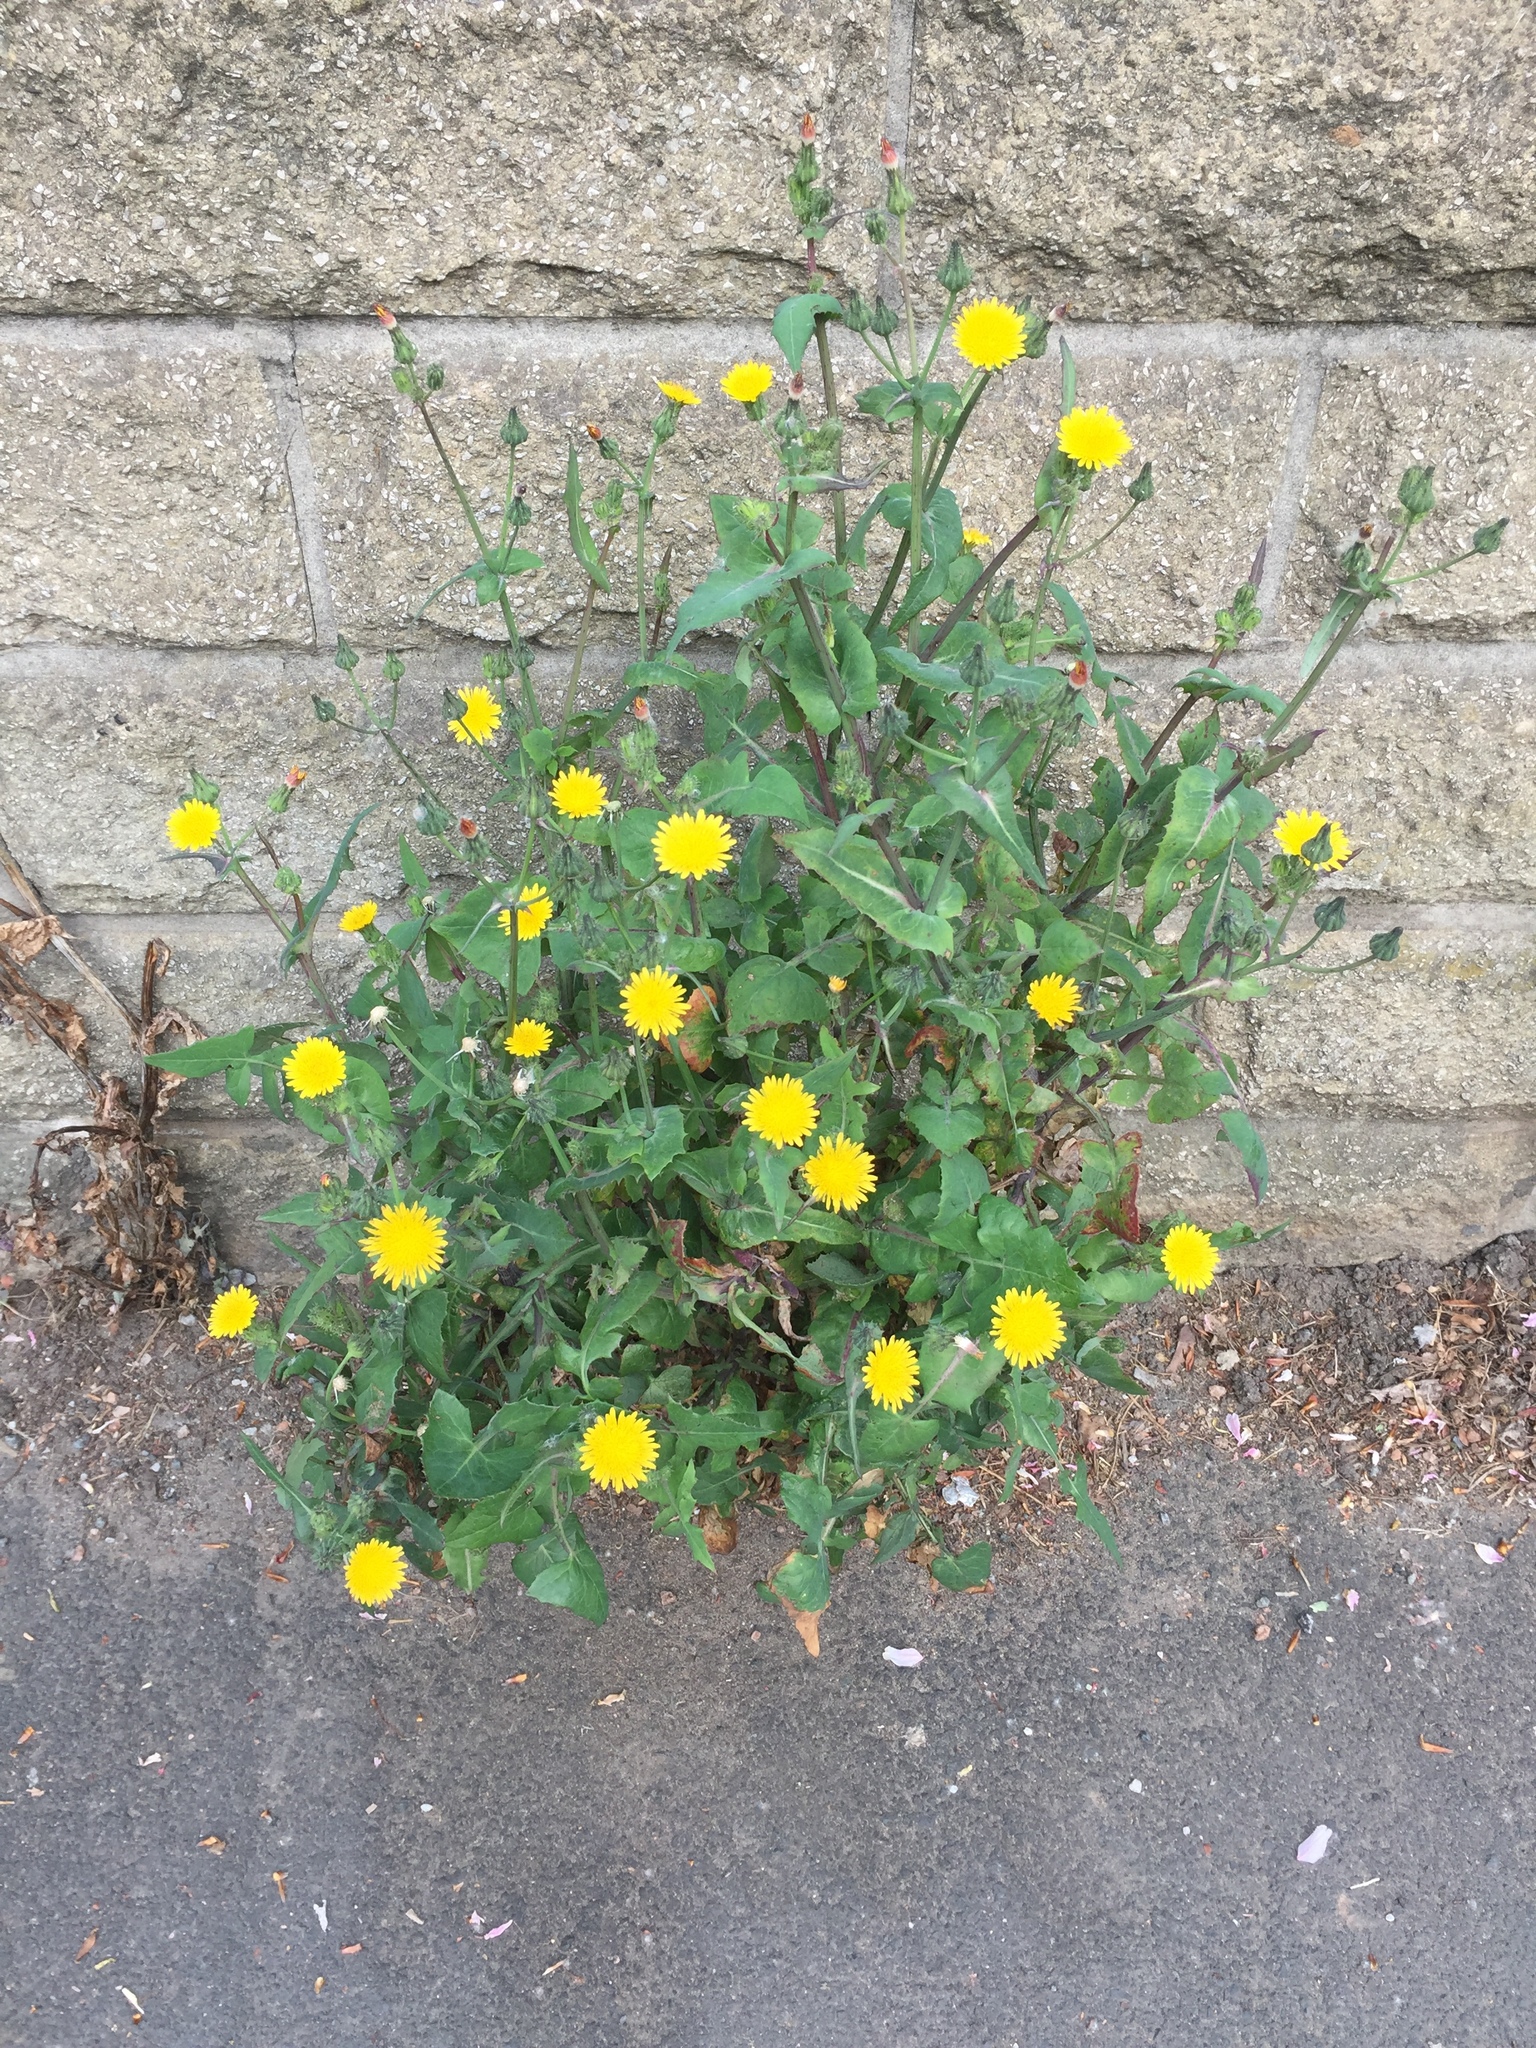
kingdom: Plantae
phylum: Tracheophyta
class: Magnoliopsida
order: Asterales
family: Asteraceae
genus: Sonchus
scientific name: Sonchus oleraceus
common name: Common sowthistle
